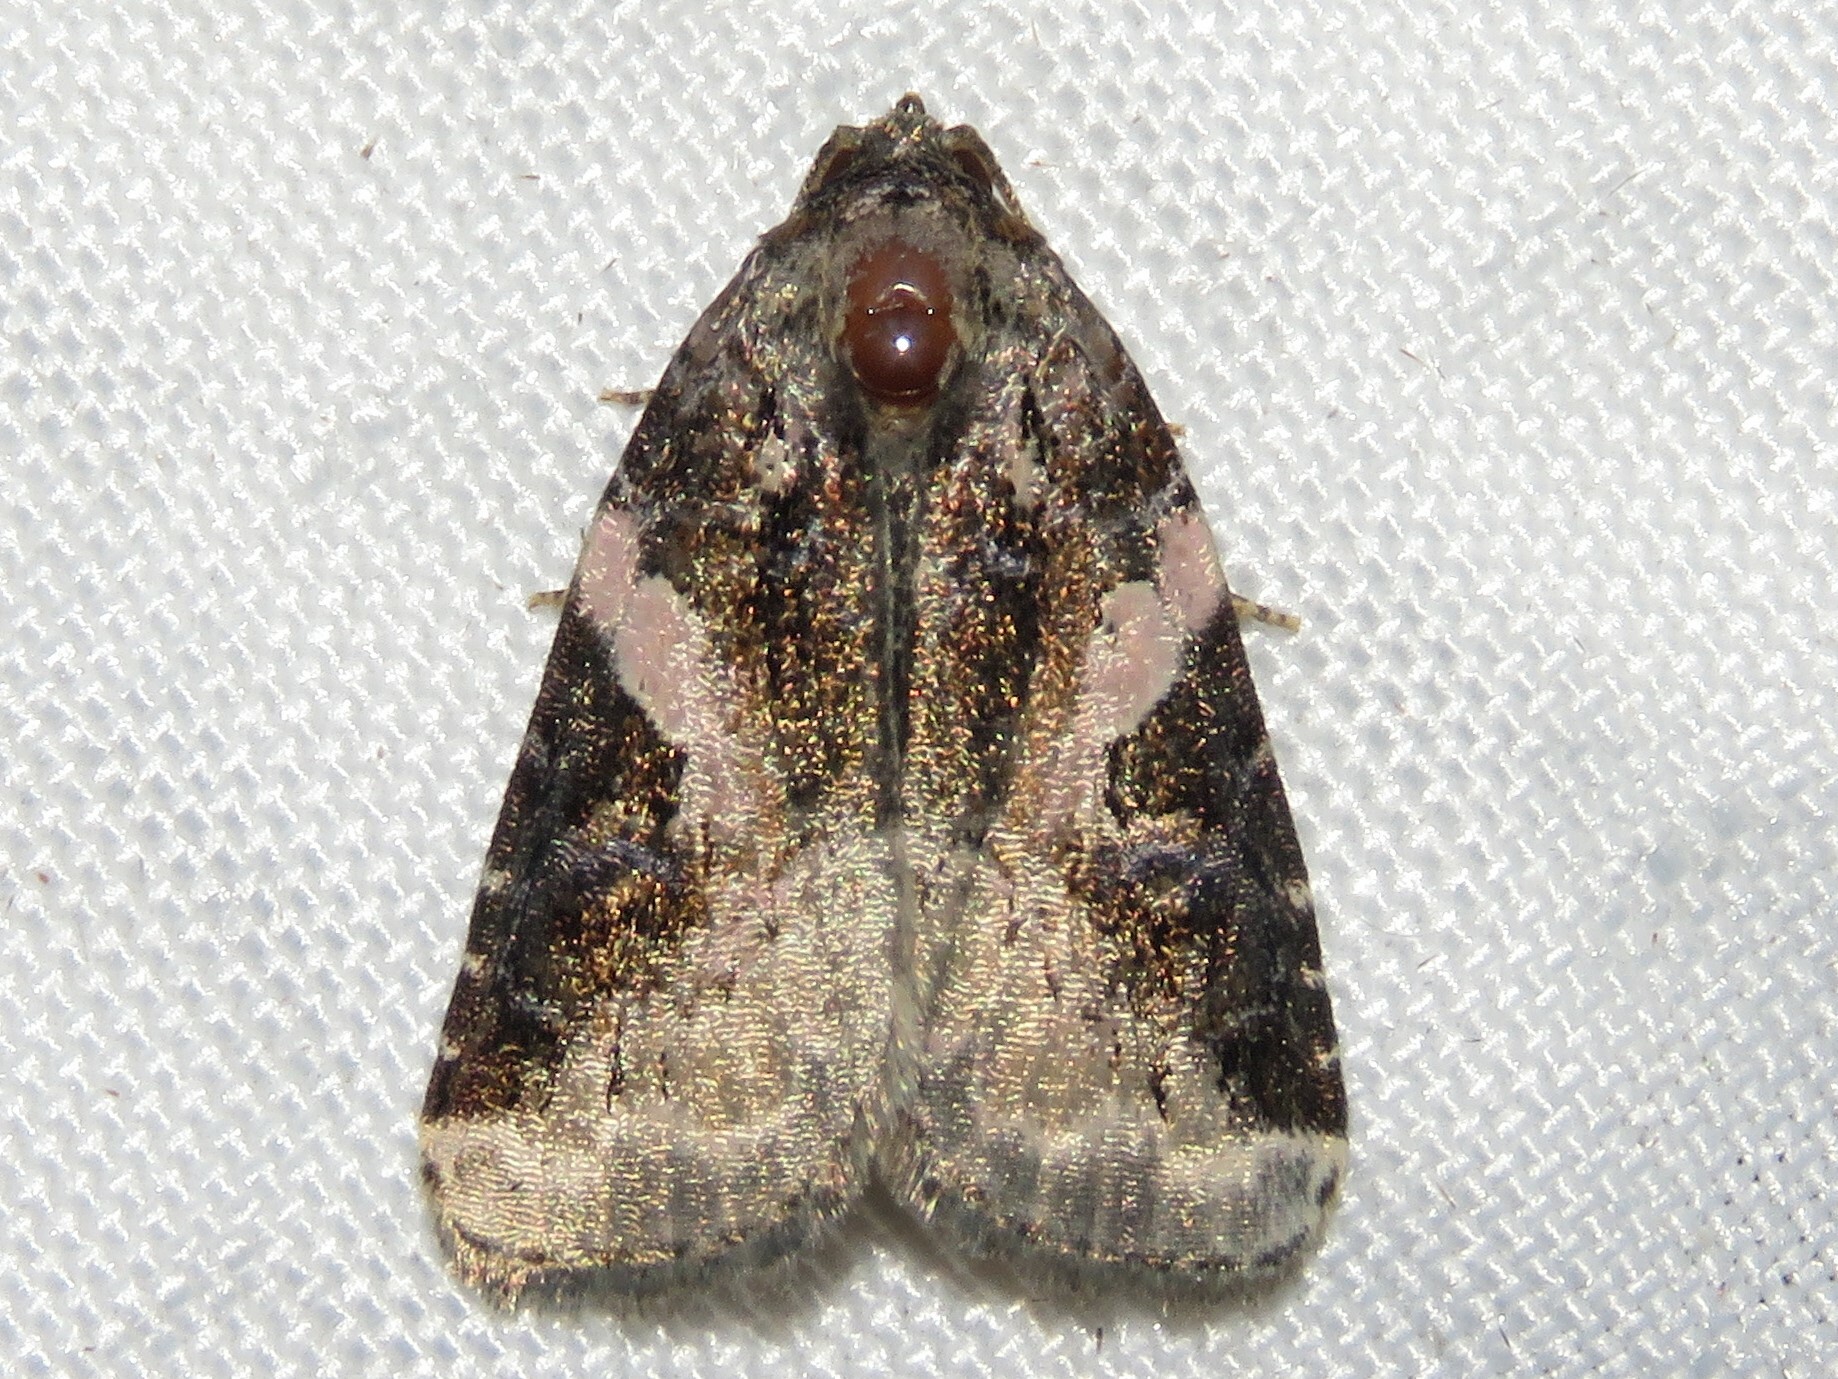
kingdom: Animalia
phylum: Arthropoda
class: Insecta
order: Lepidoptera
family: Noctuidae
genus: Pseudeustrotia
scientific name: Pseudeustrotia carneola
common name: Pink-barred lithacodia moth
